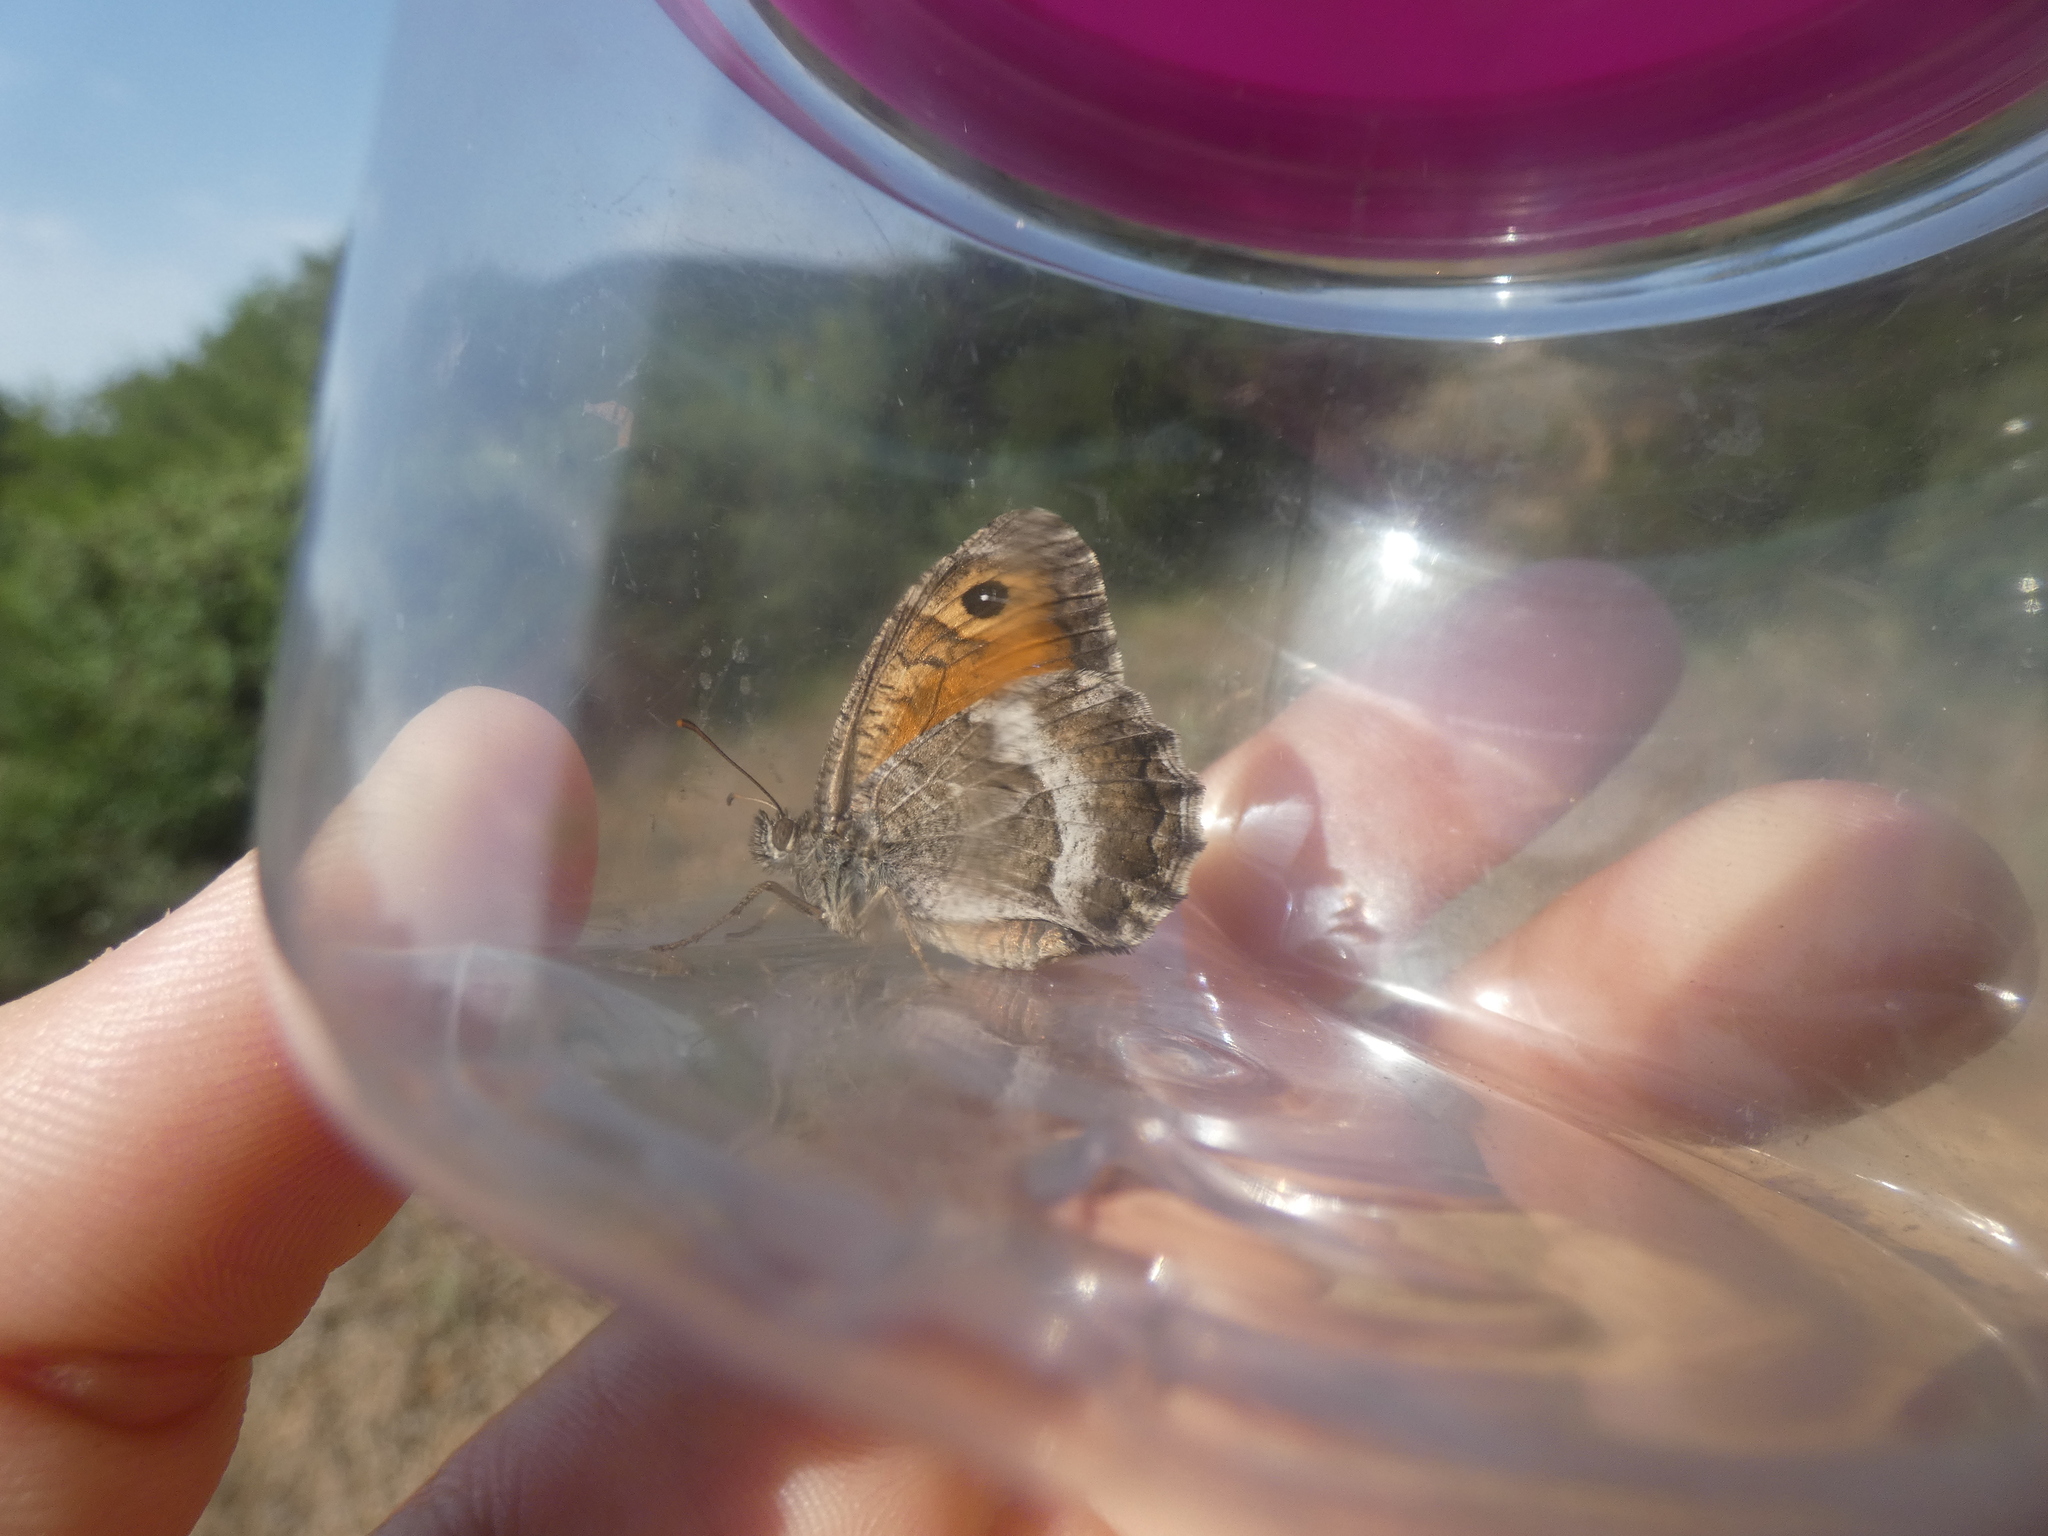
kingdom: Animalia
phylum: Arthropoda
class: Insecta
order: Lepidoptera
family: Nymphalidae
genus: Arethusana
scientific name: Arethusana arethusa
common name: False grayling
